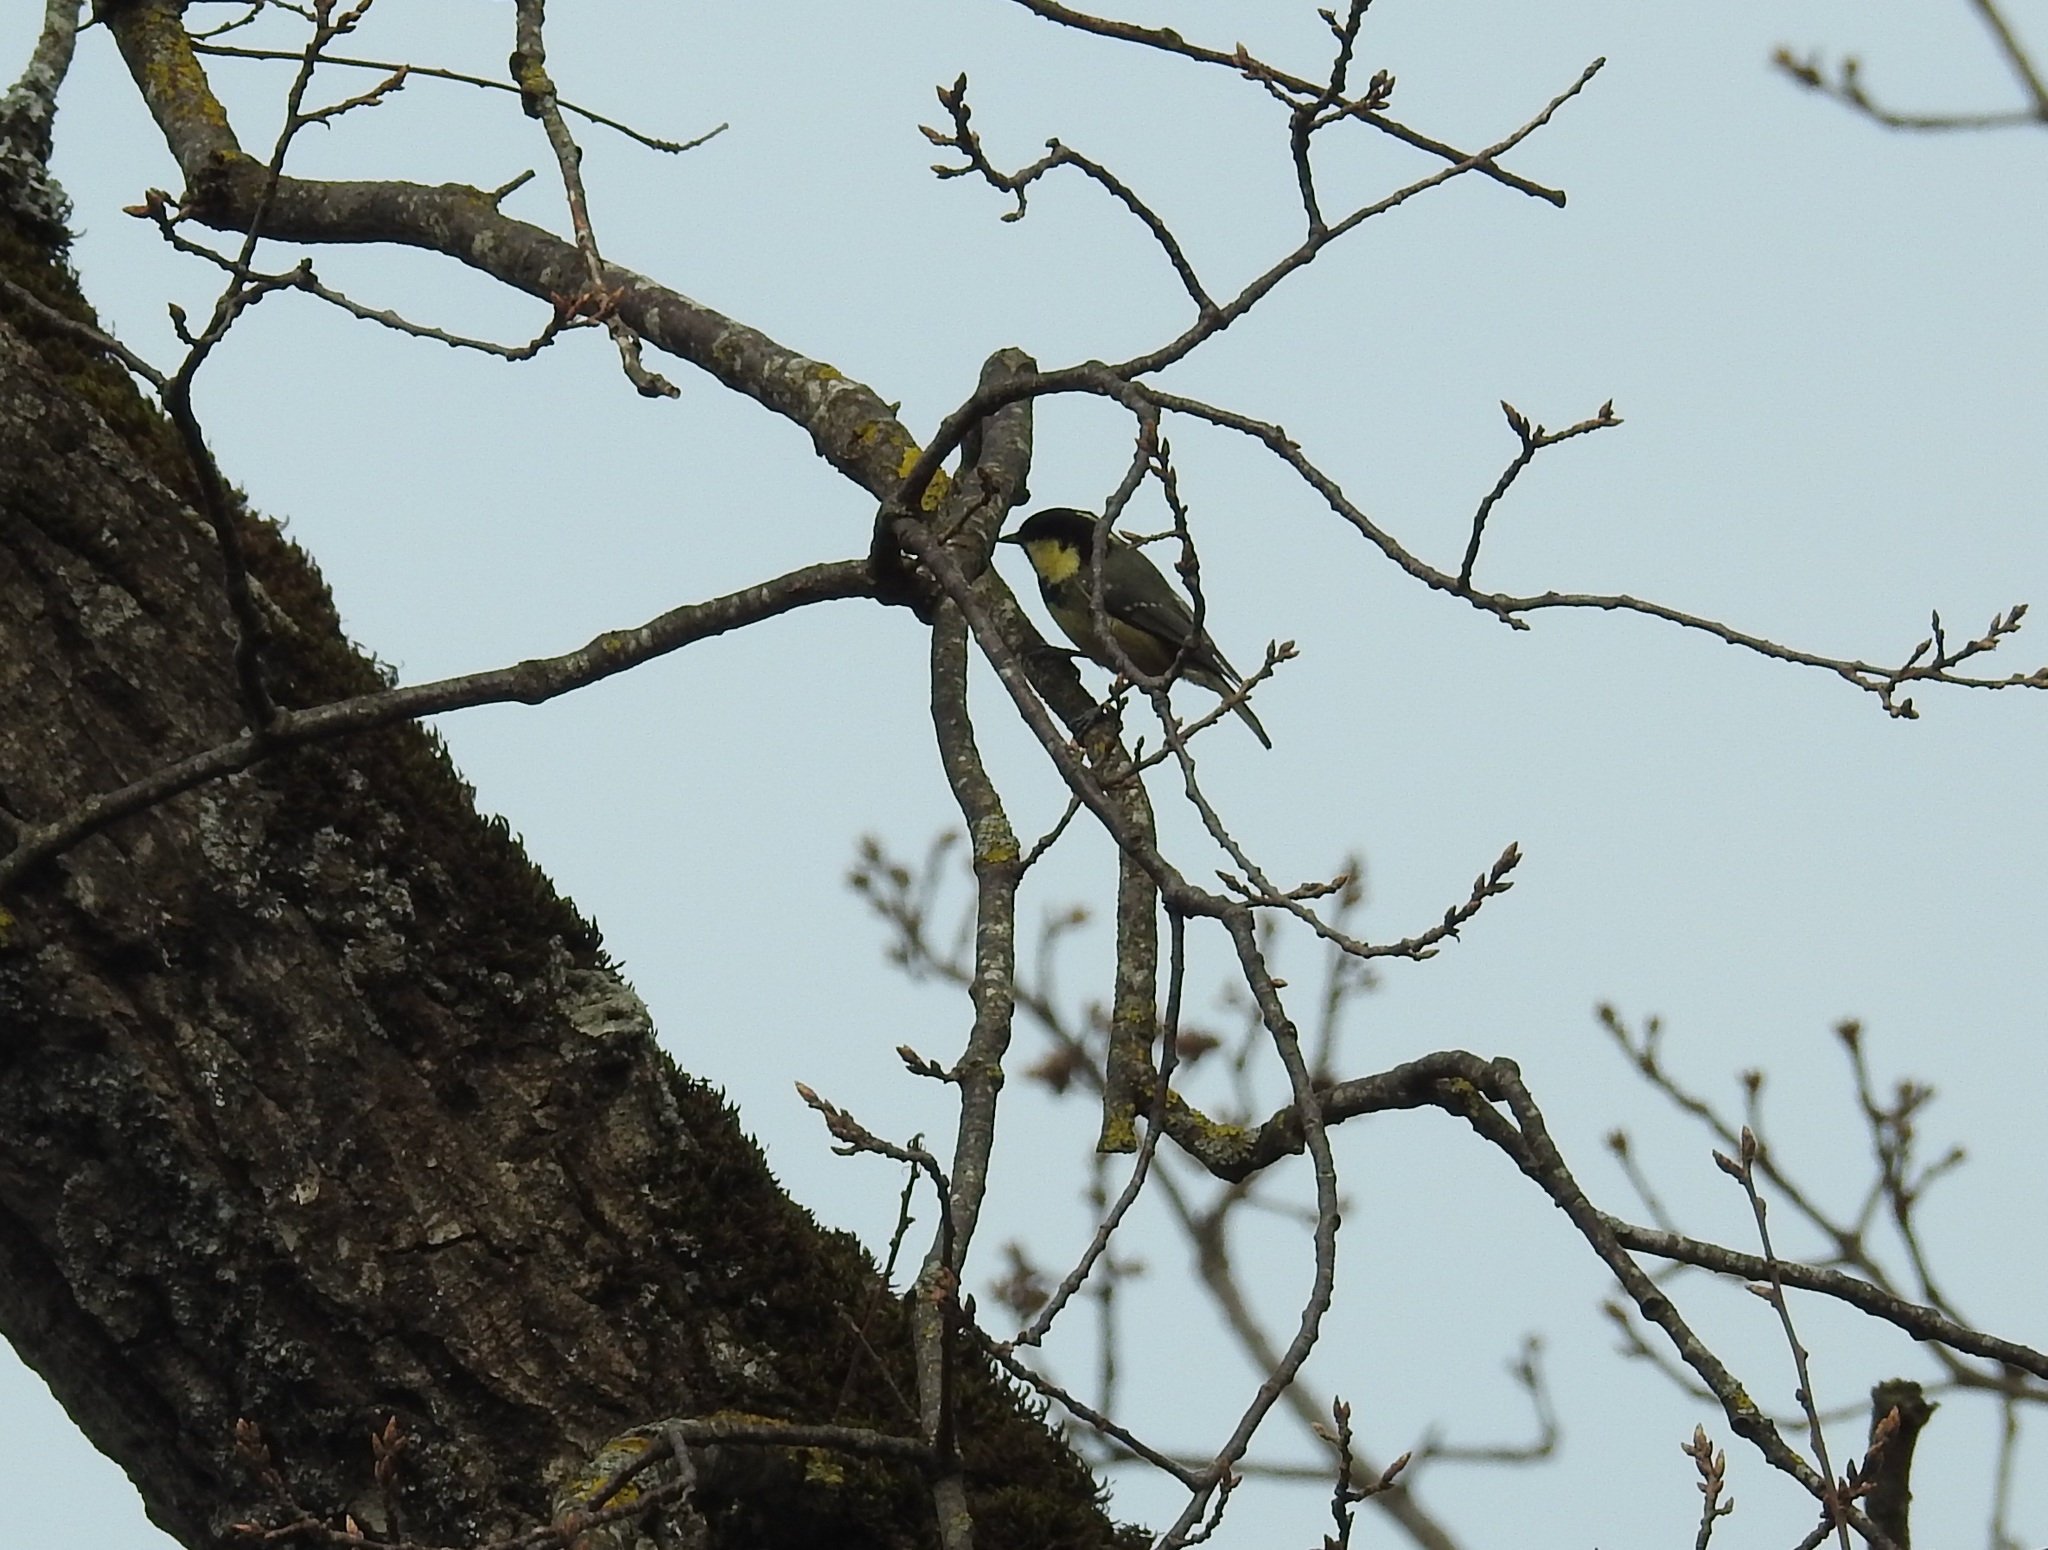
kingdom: Animalia
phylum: Chordata
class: Aves
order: Passeriformes
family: Paridae
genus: Periparus
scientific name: Periparus ater
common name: Coal tit
